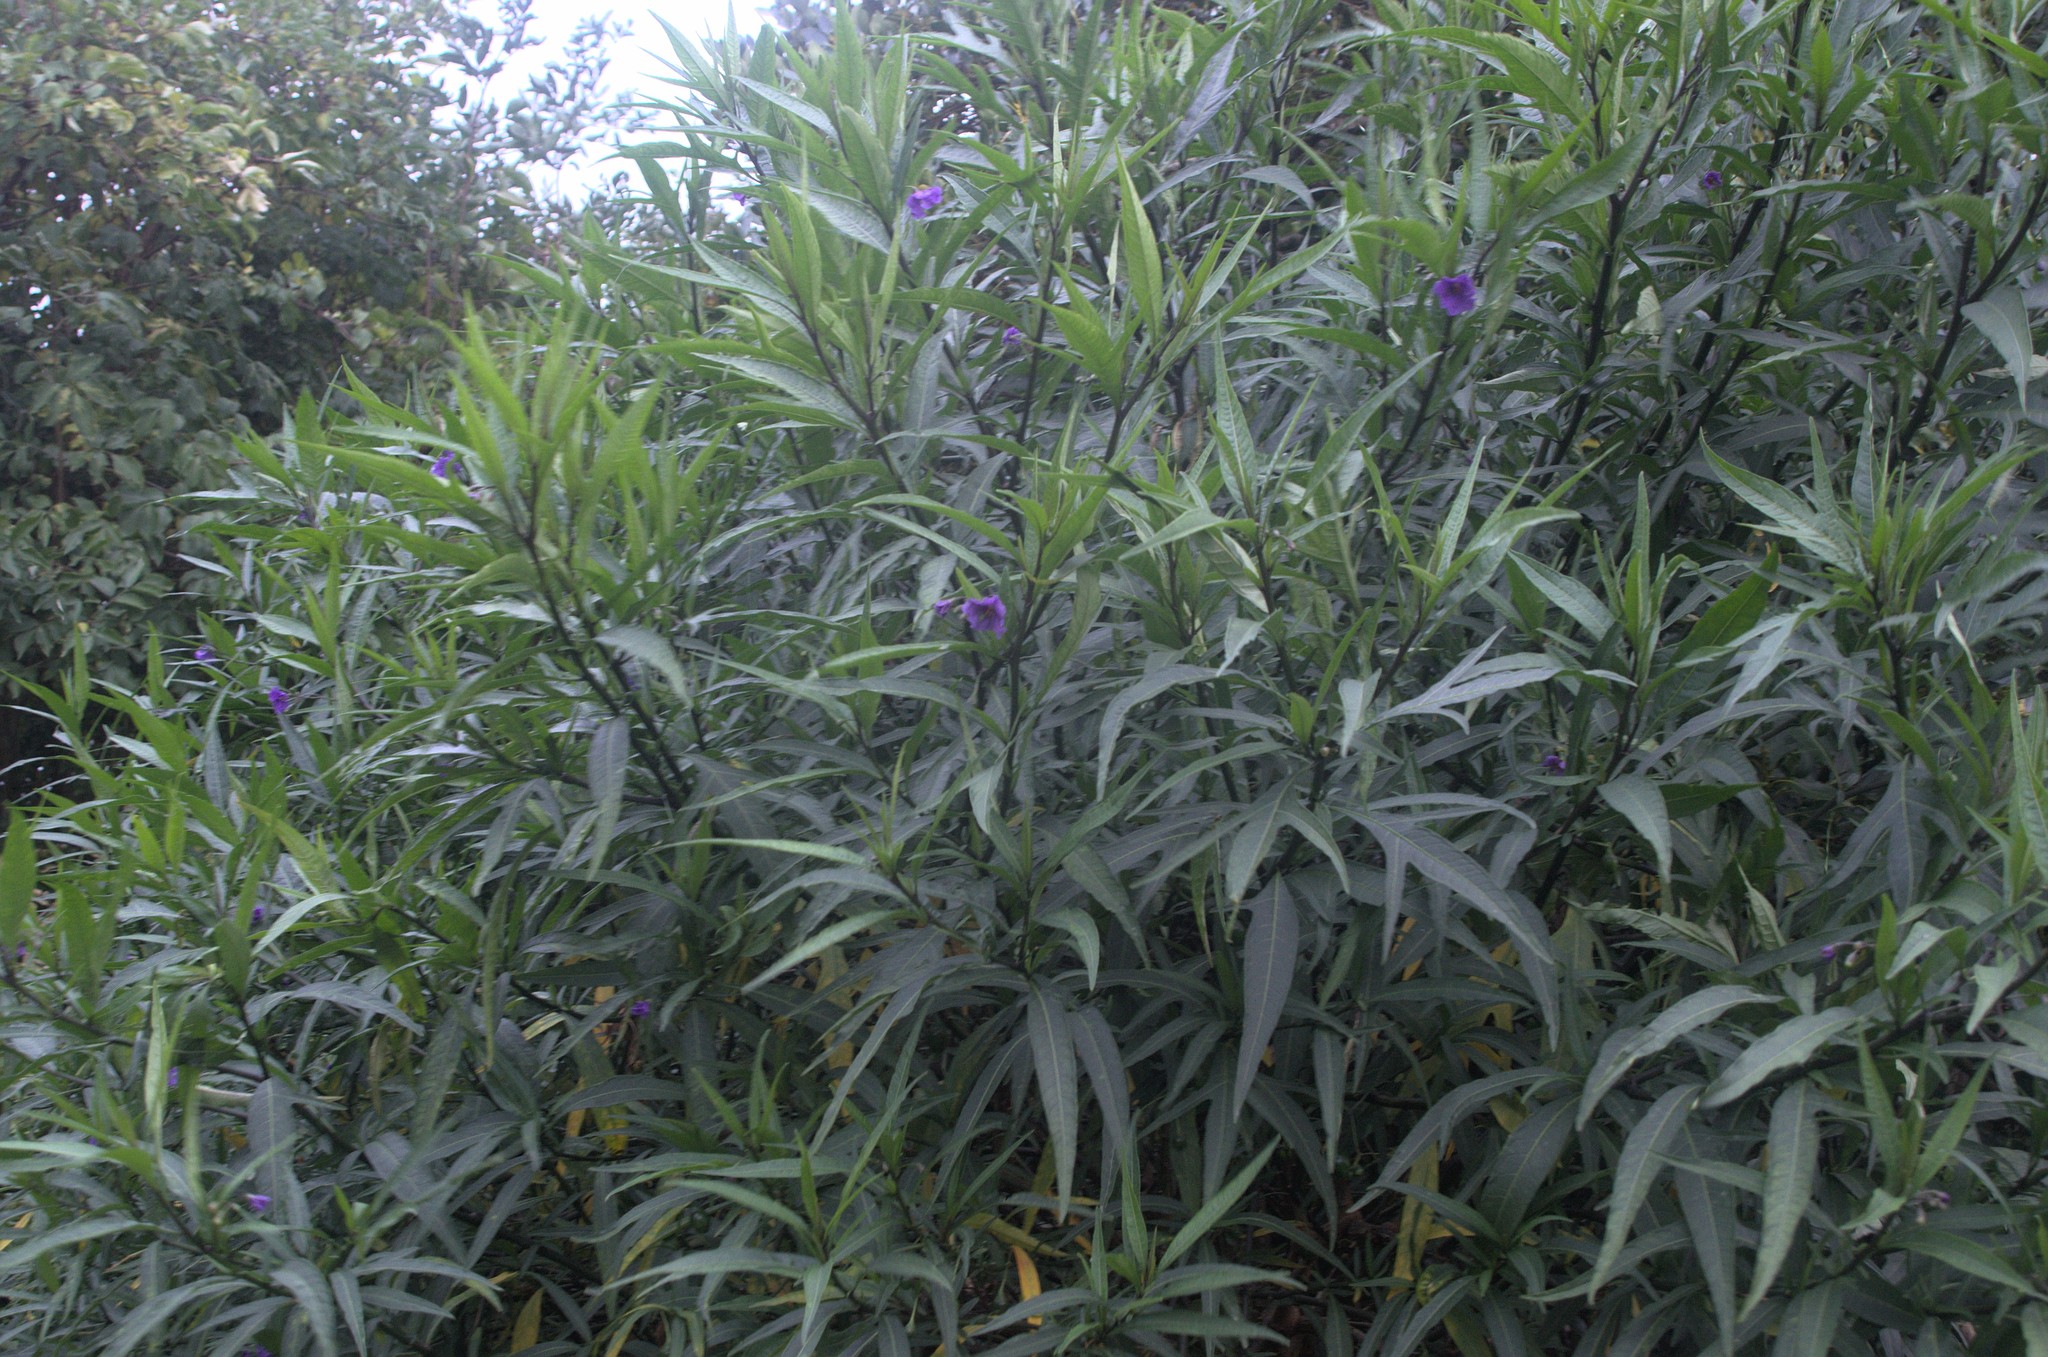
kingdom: Plantae
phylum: Tracheophyta
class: Magnoliopsida
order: Solanales
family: Solanaceae
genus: Solanum
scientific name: Solanum laciniatum
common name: Kangaroo-apple
